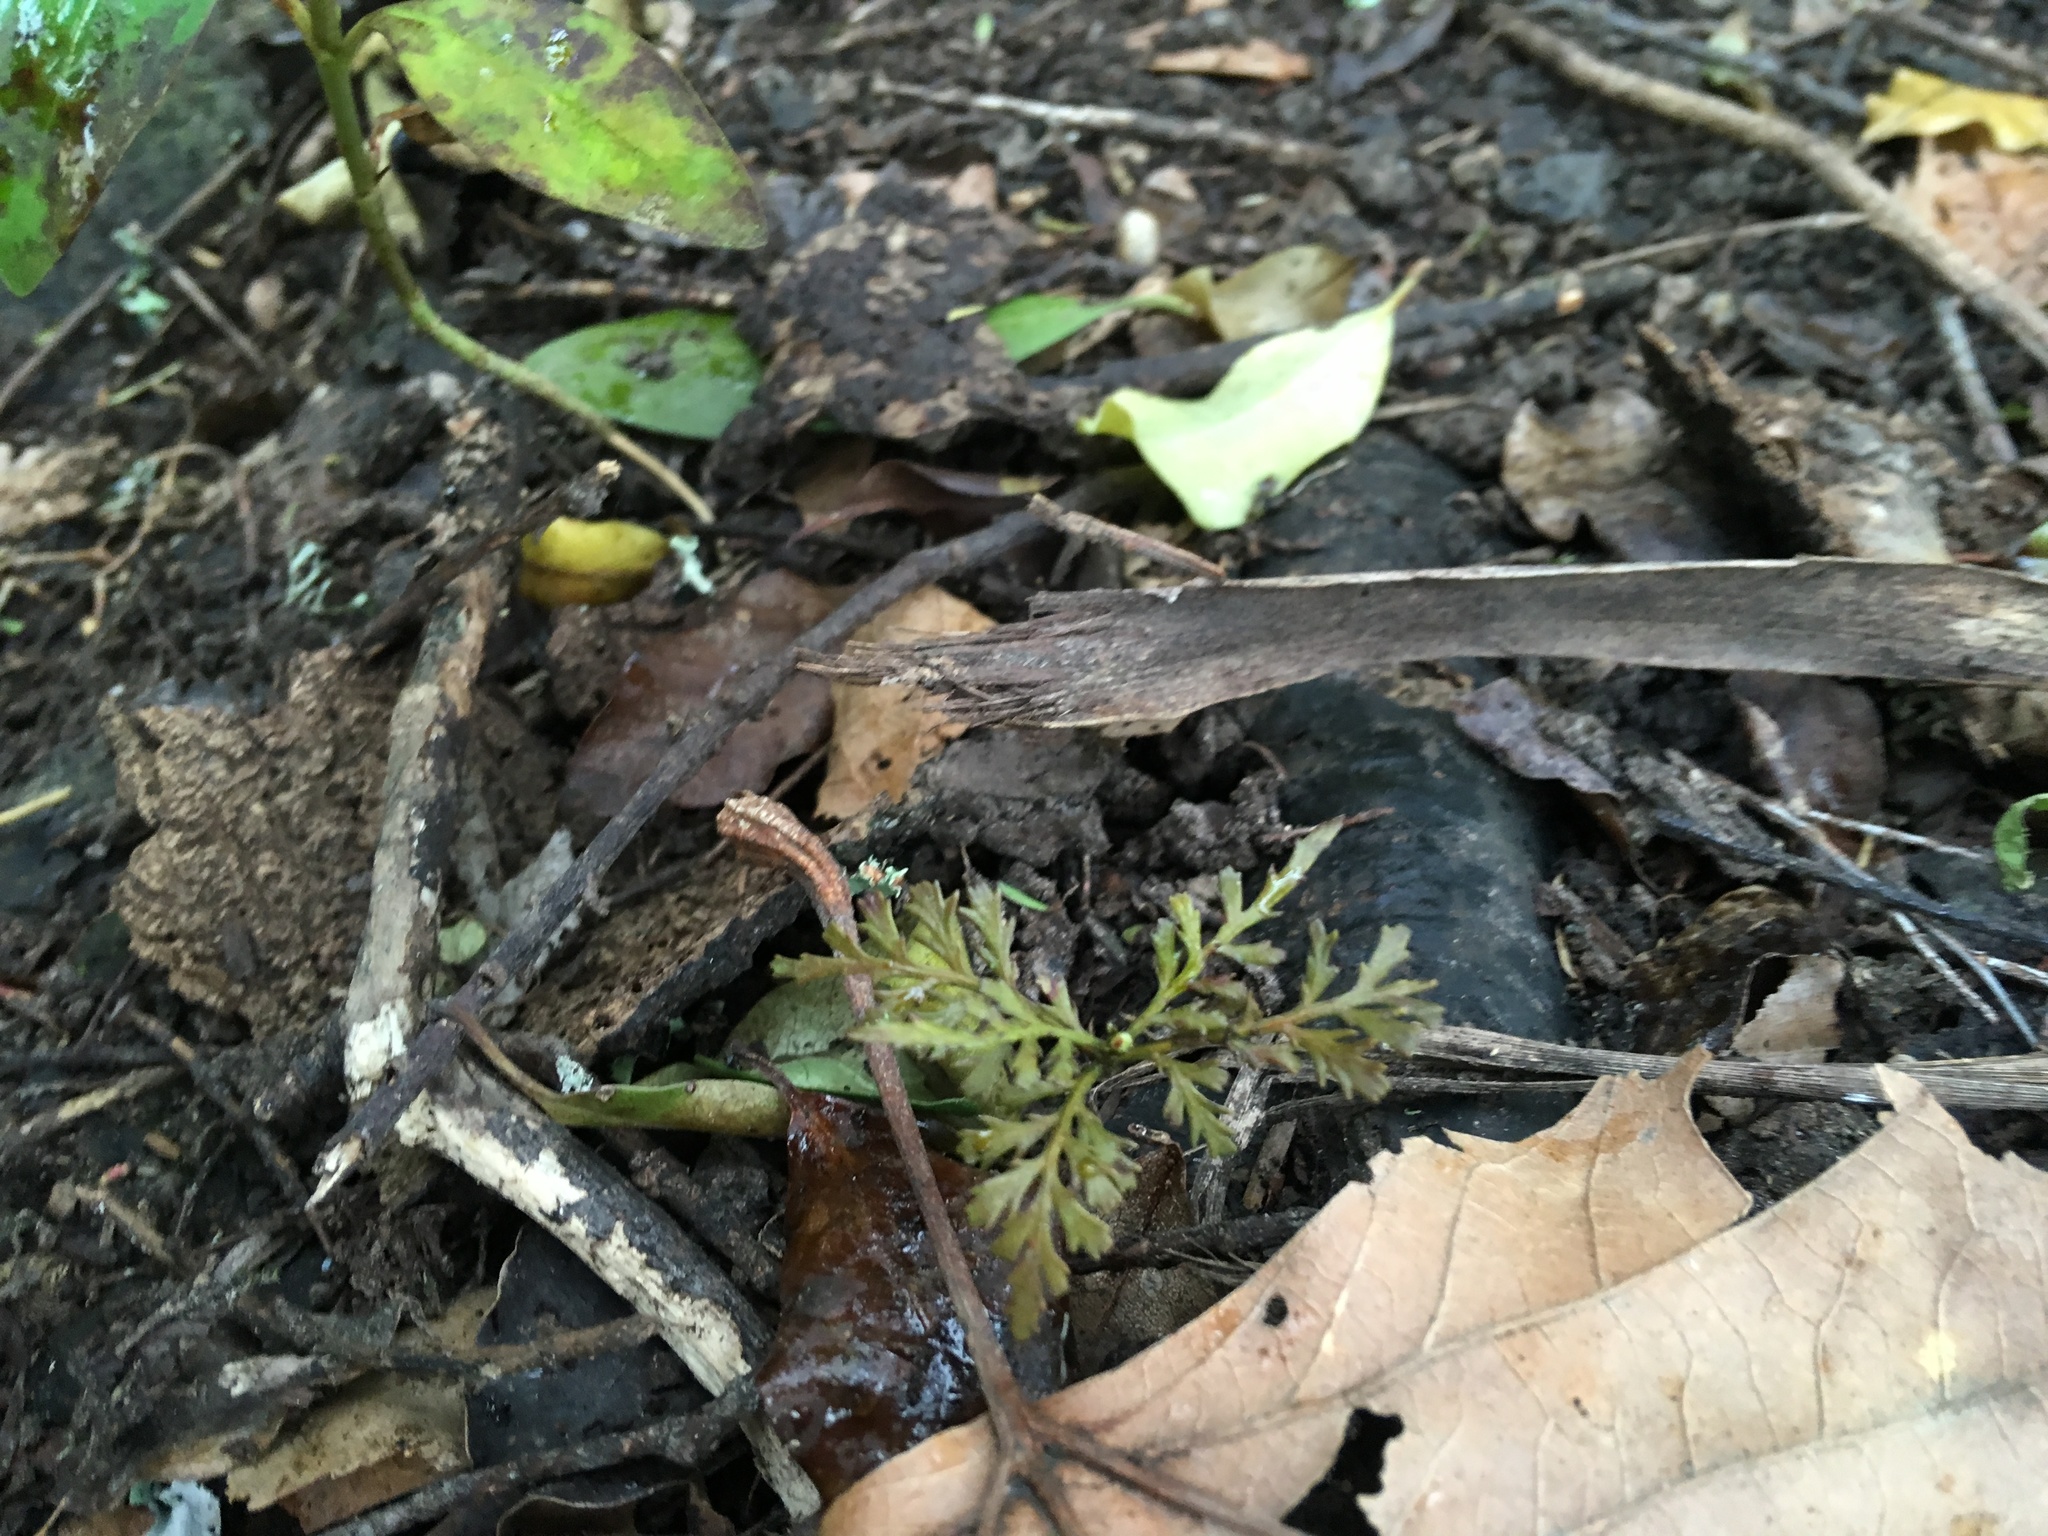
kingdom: Plantae
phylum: Tracheophyta
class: Pinopsida
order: Pinales
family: Phyllocladaceae
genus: Phyllocladus
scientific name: Phyllocladus trichomanoides
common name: Celery pine
